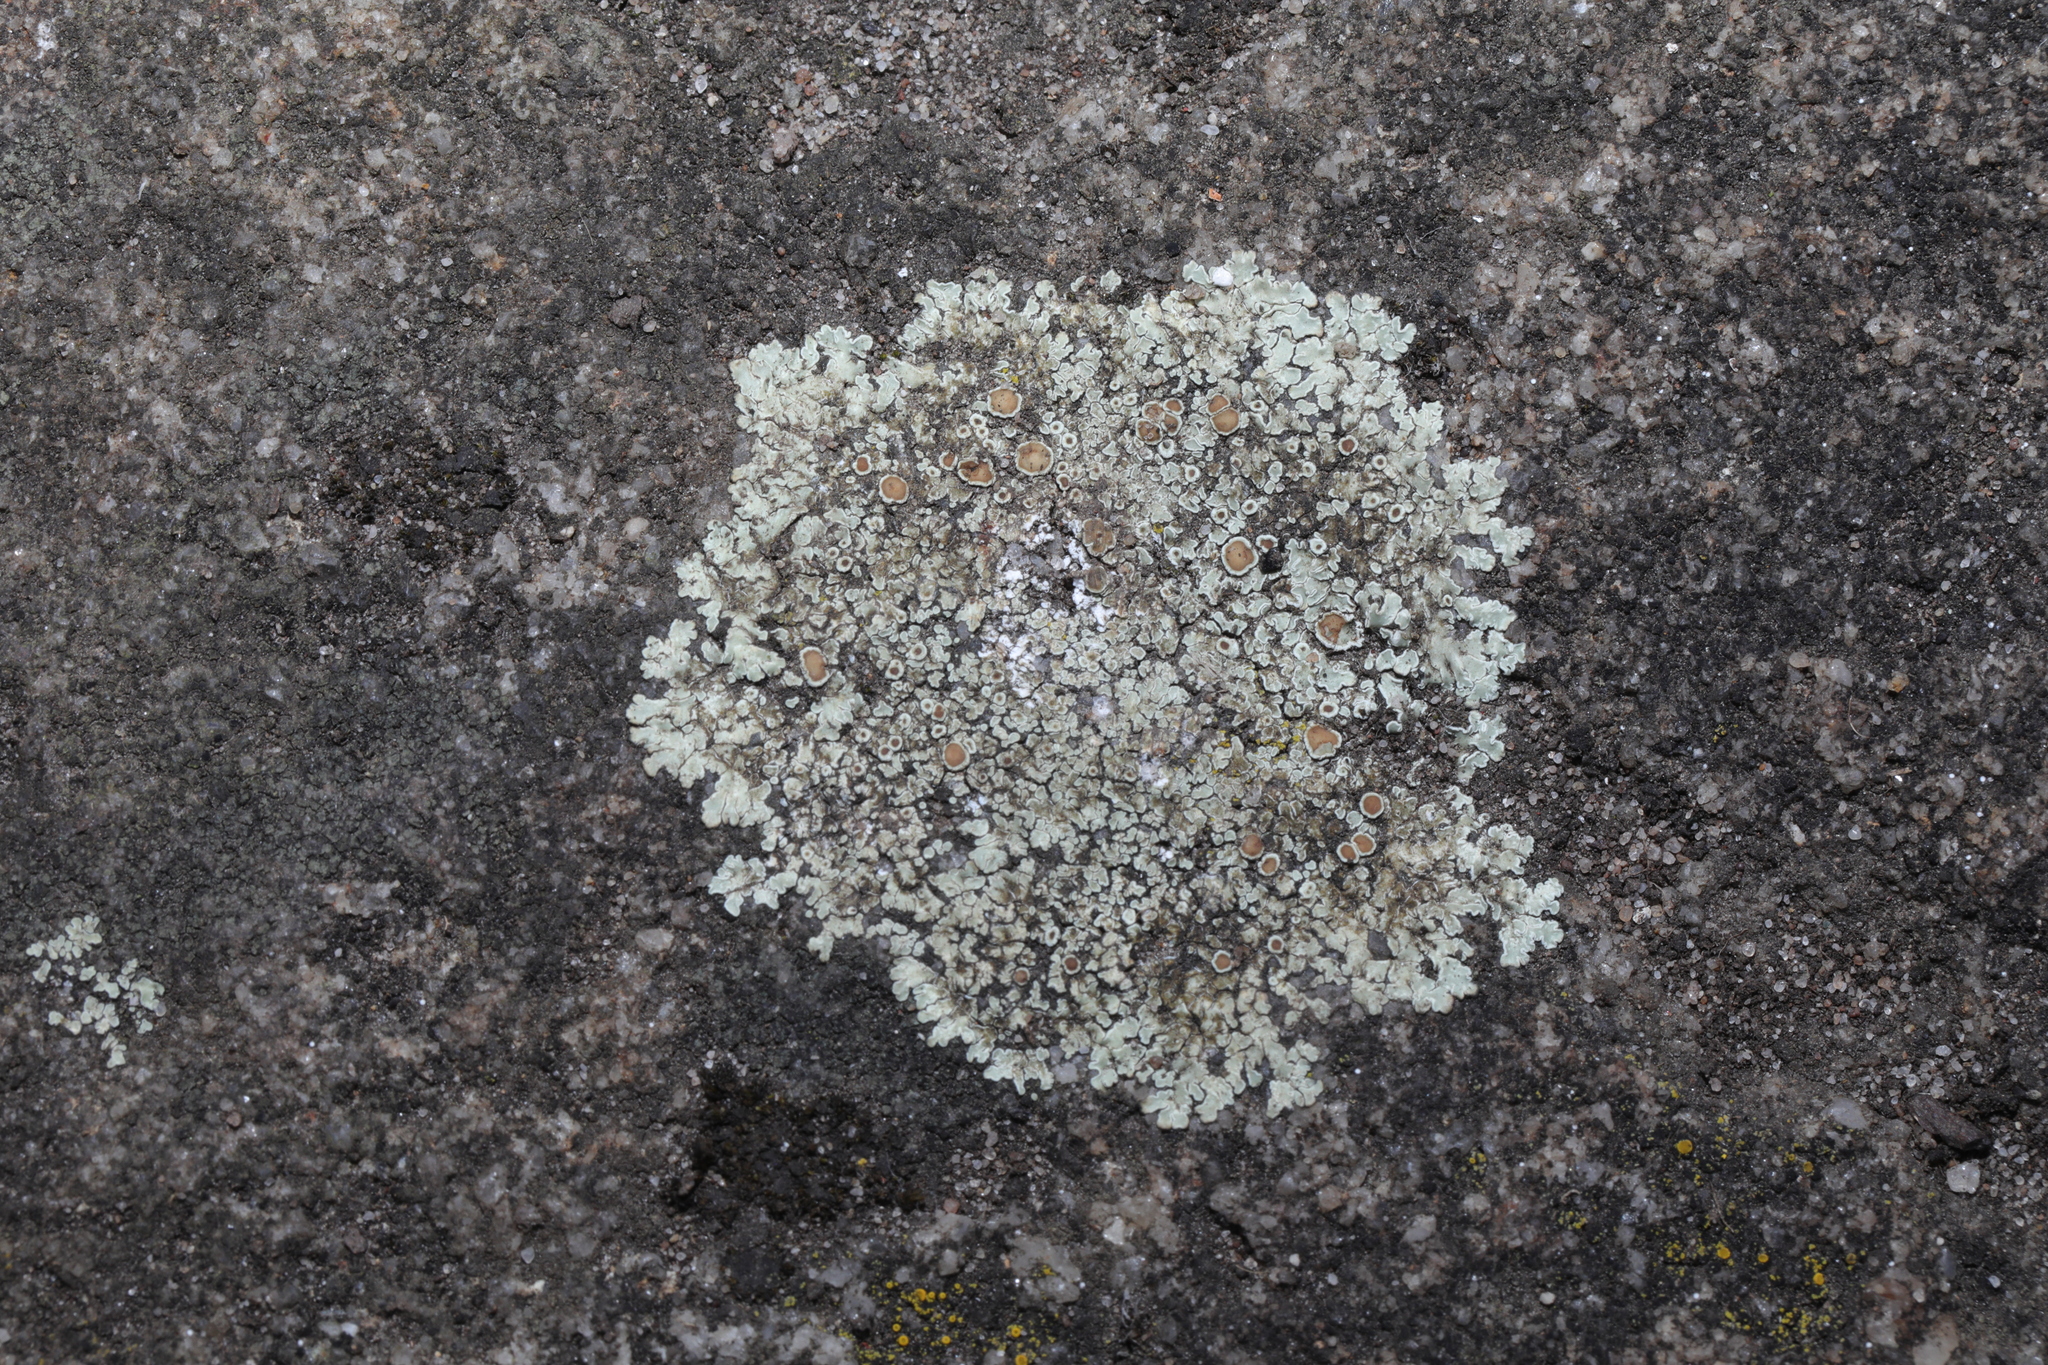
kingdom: Fungi
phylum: Ascomycota
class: Lecanoromycetes
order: Lecanorales
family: Lecanoraceae
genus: Protoparmeliopsis
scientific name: Protoparmeliopsis muralis
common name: Stonewall rim lichen
